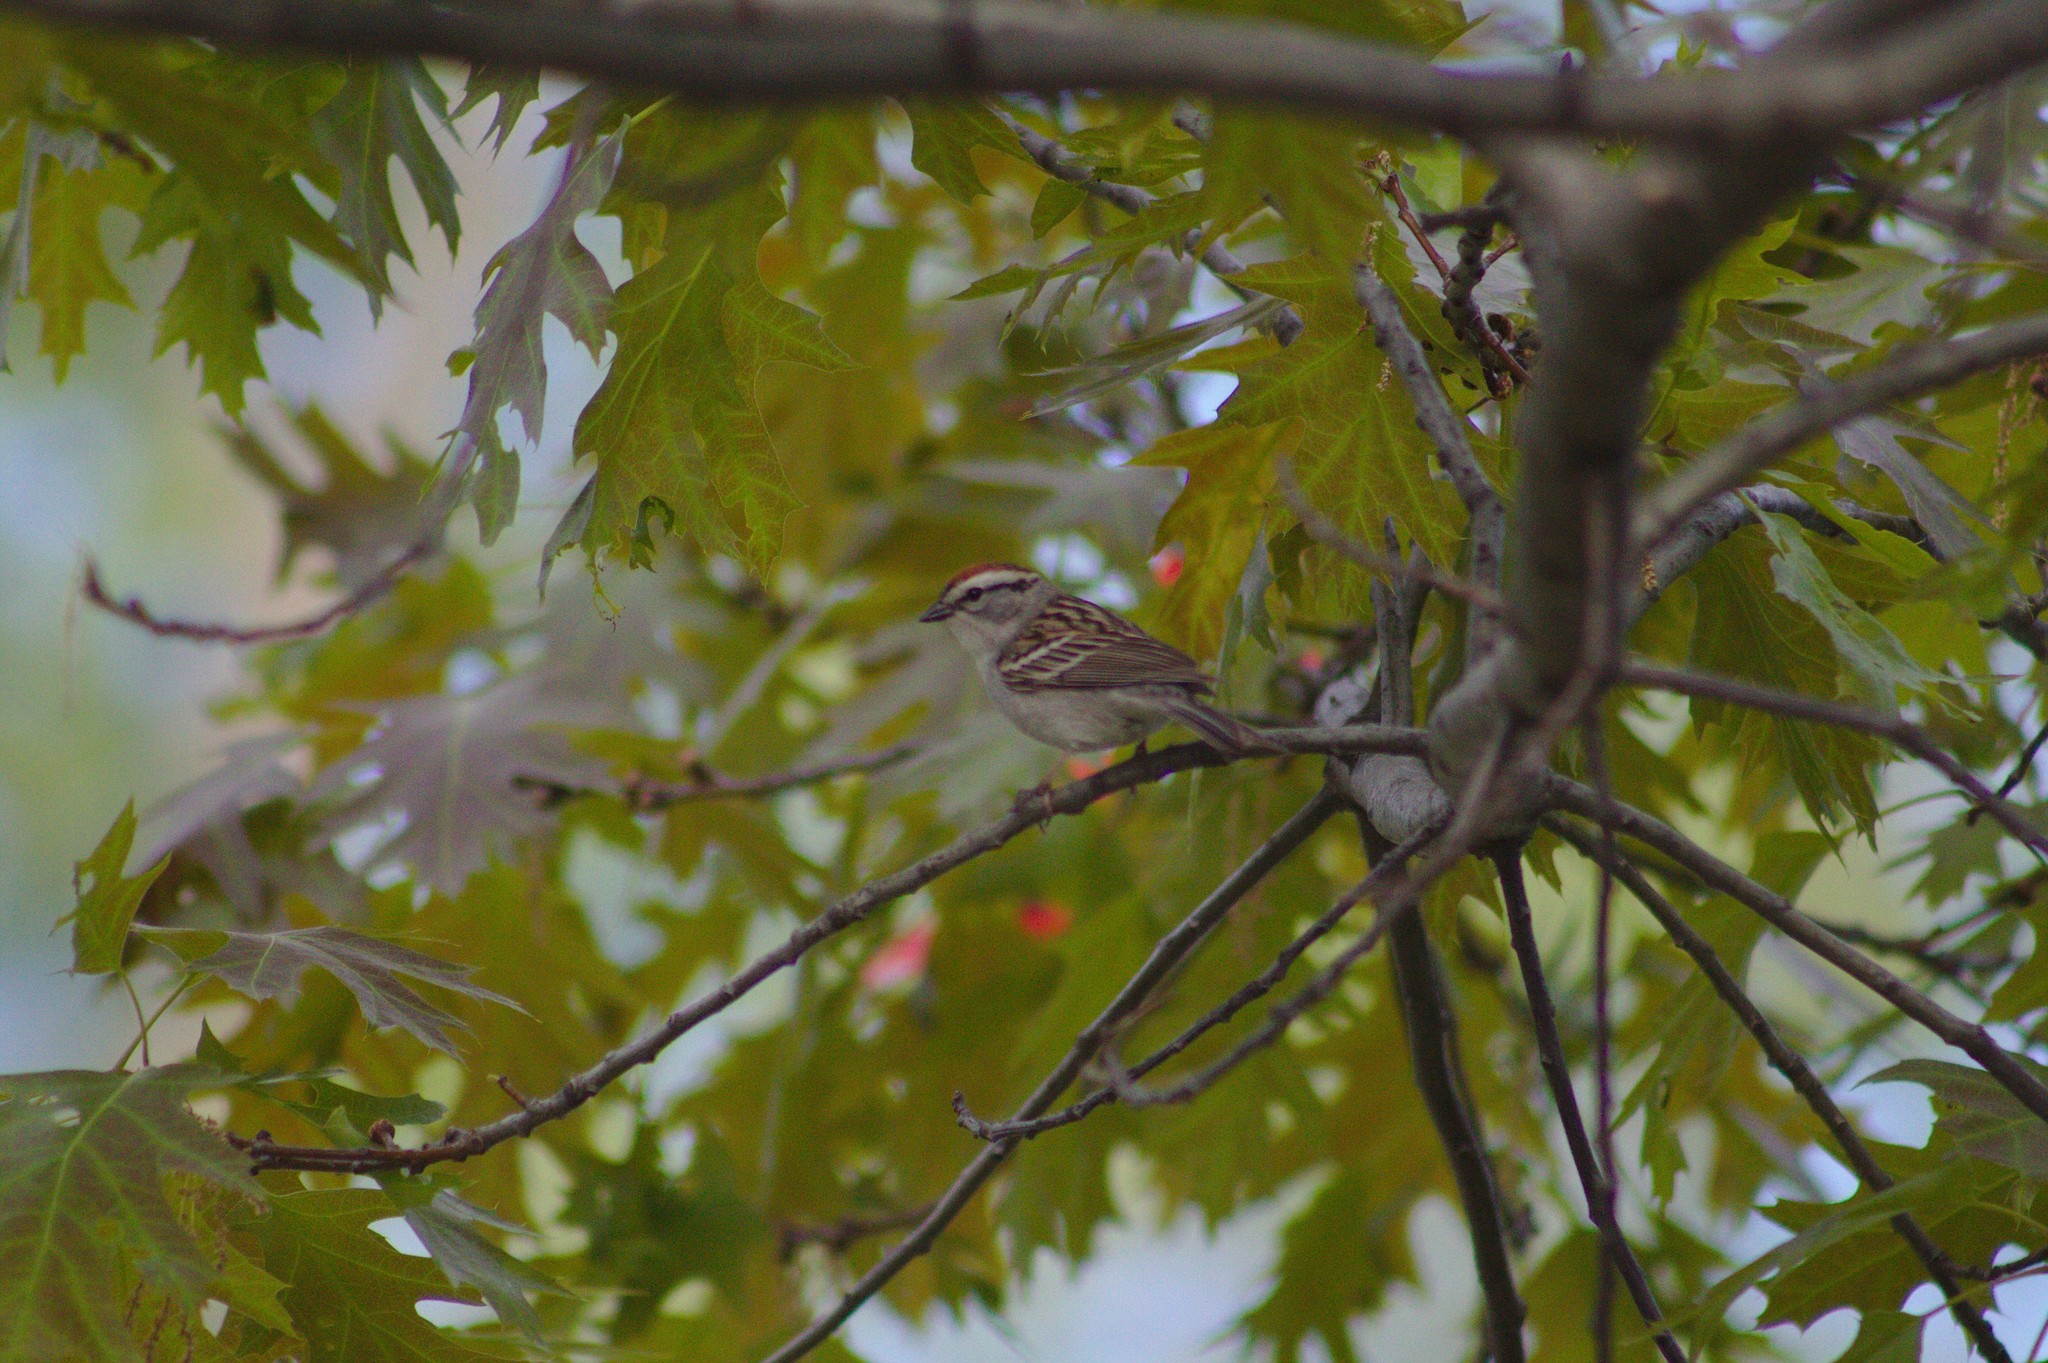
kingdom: Animalia
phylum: Chordata
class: Aves
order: Passeriformes
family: Passerellidae
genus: Spizella
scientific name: Spizella passerina
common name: Chipping sparrow
